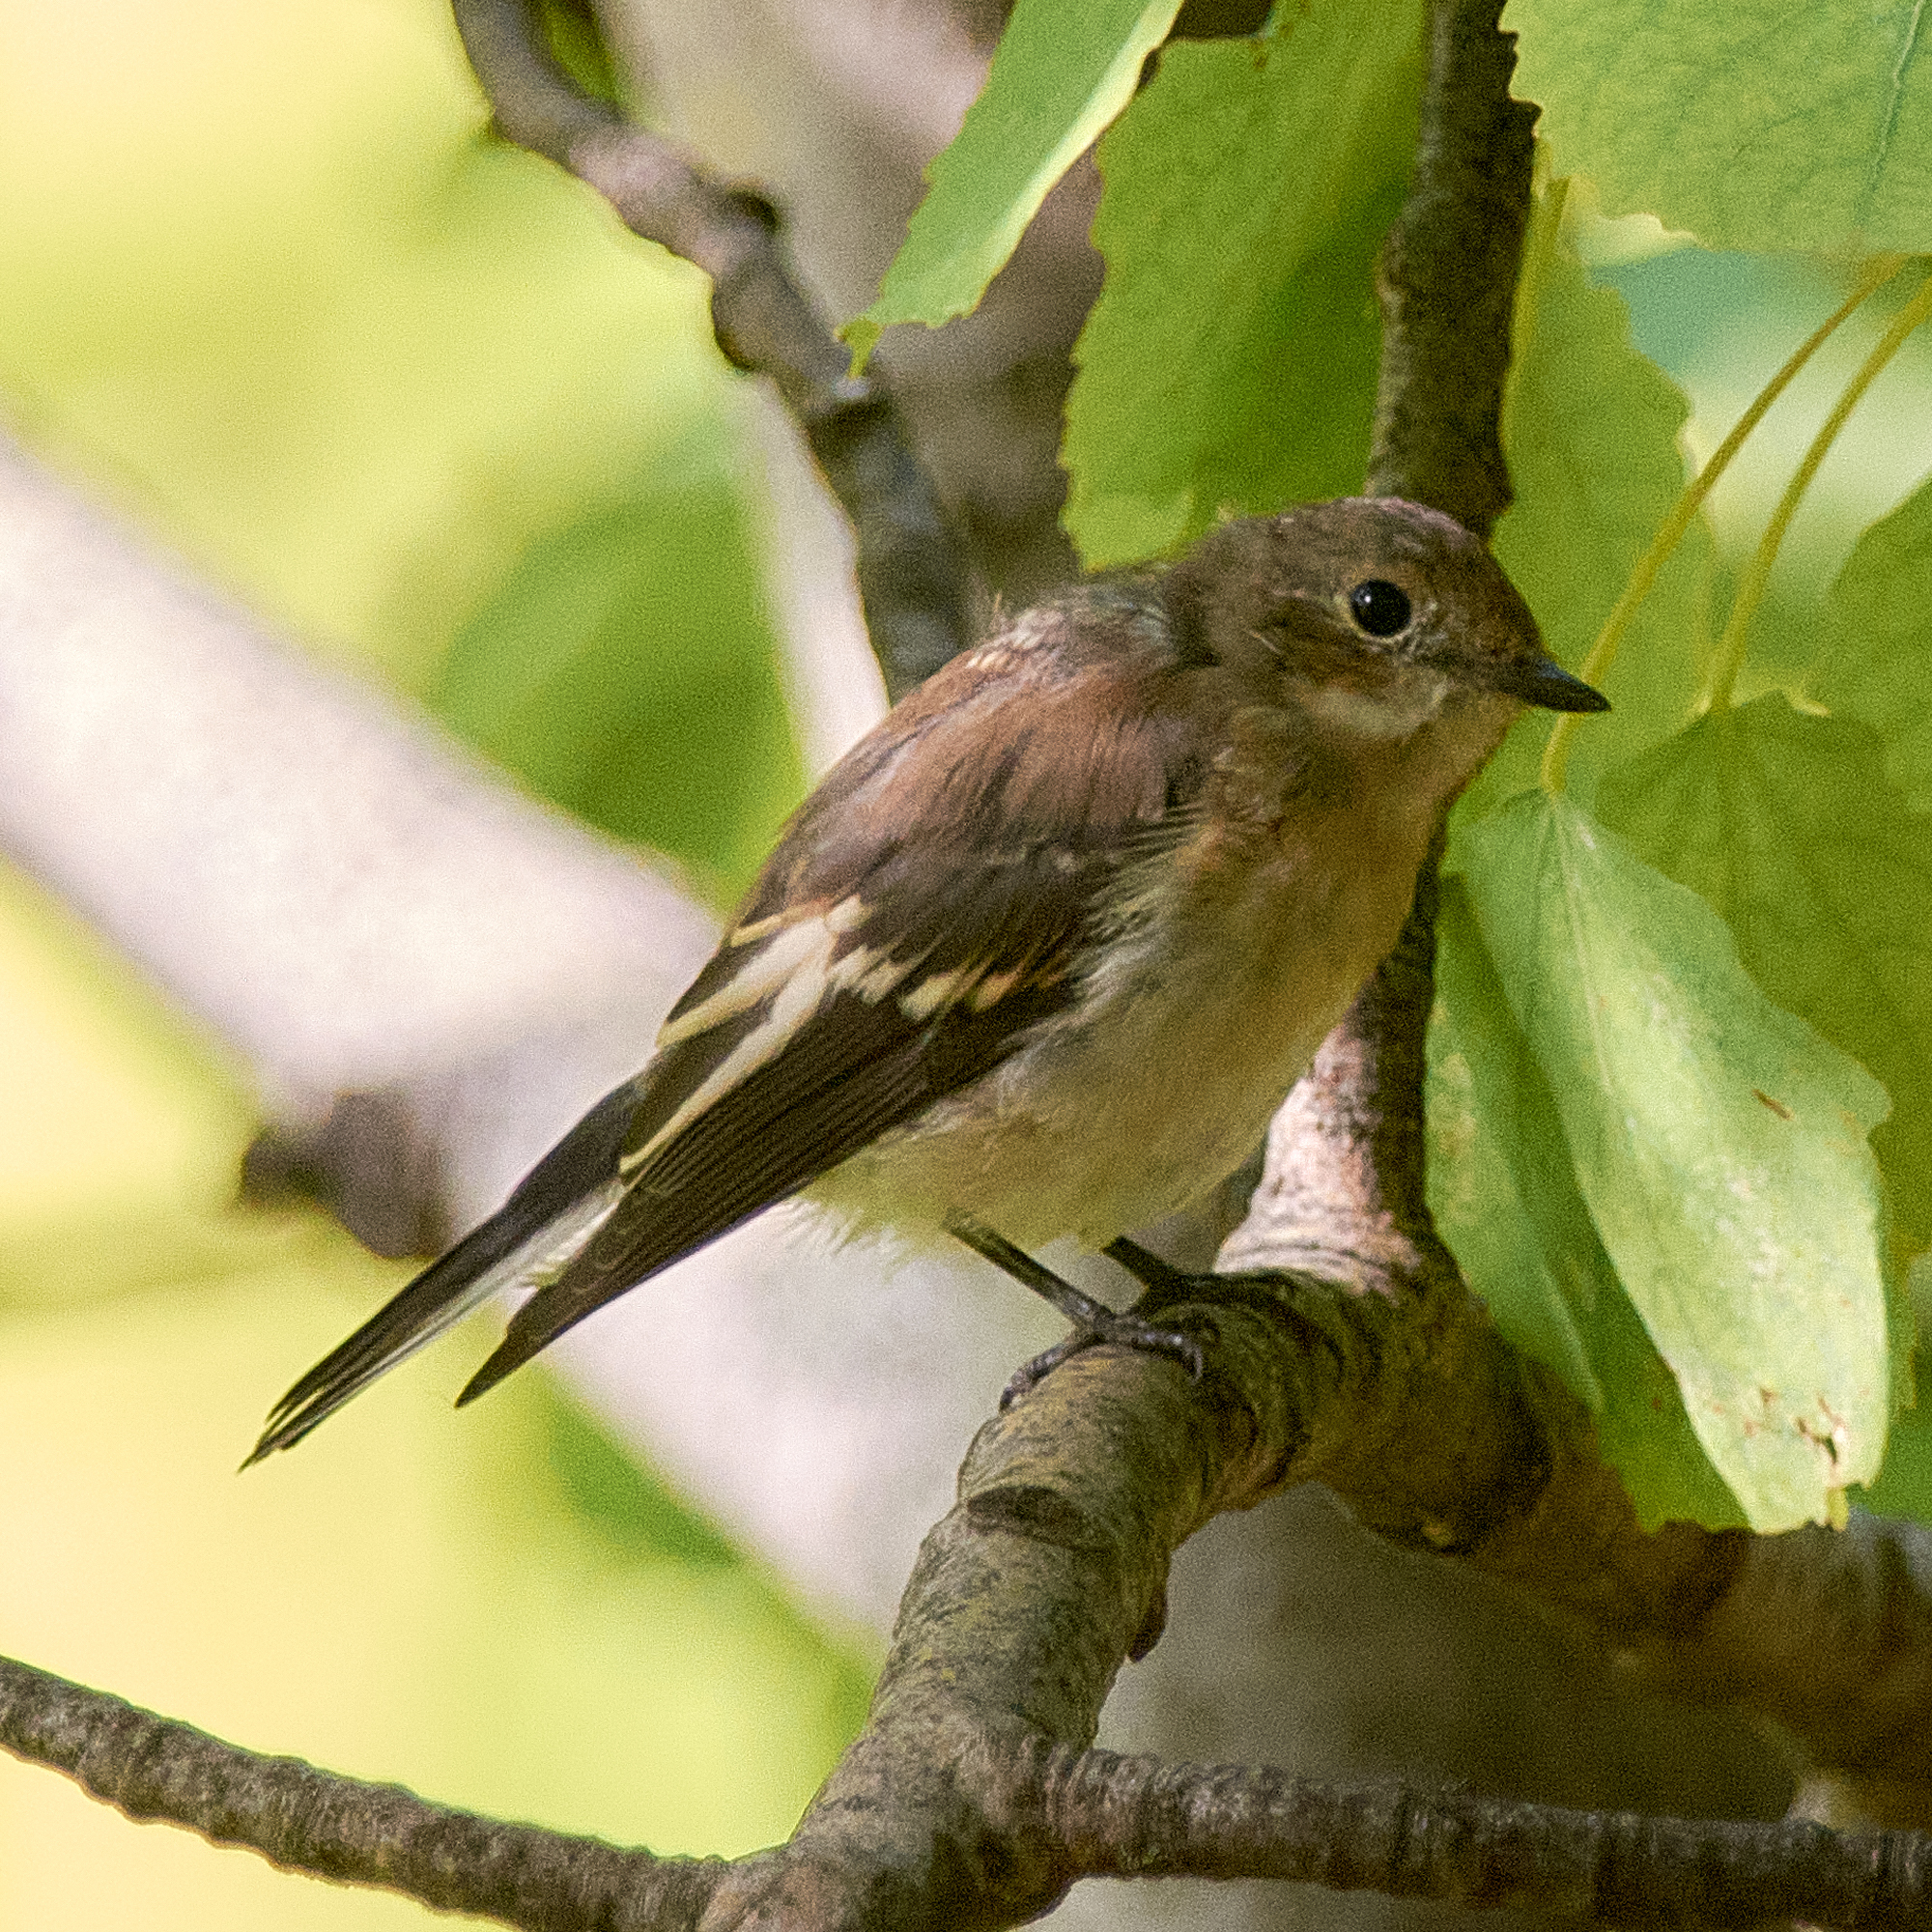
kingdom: Animalia
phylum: Chordata
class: Aves
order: Passeriformes
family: Muscicapidae
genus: Ficedula
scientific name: Ficedula hypoleuca
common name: European pied flycatcher
